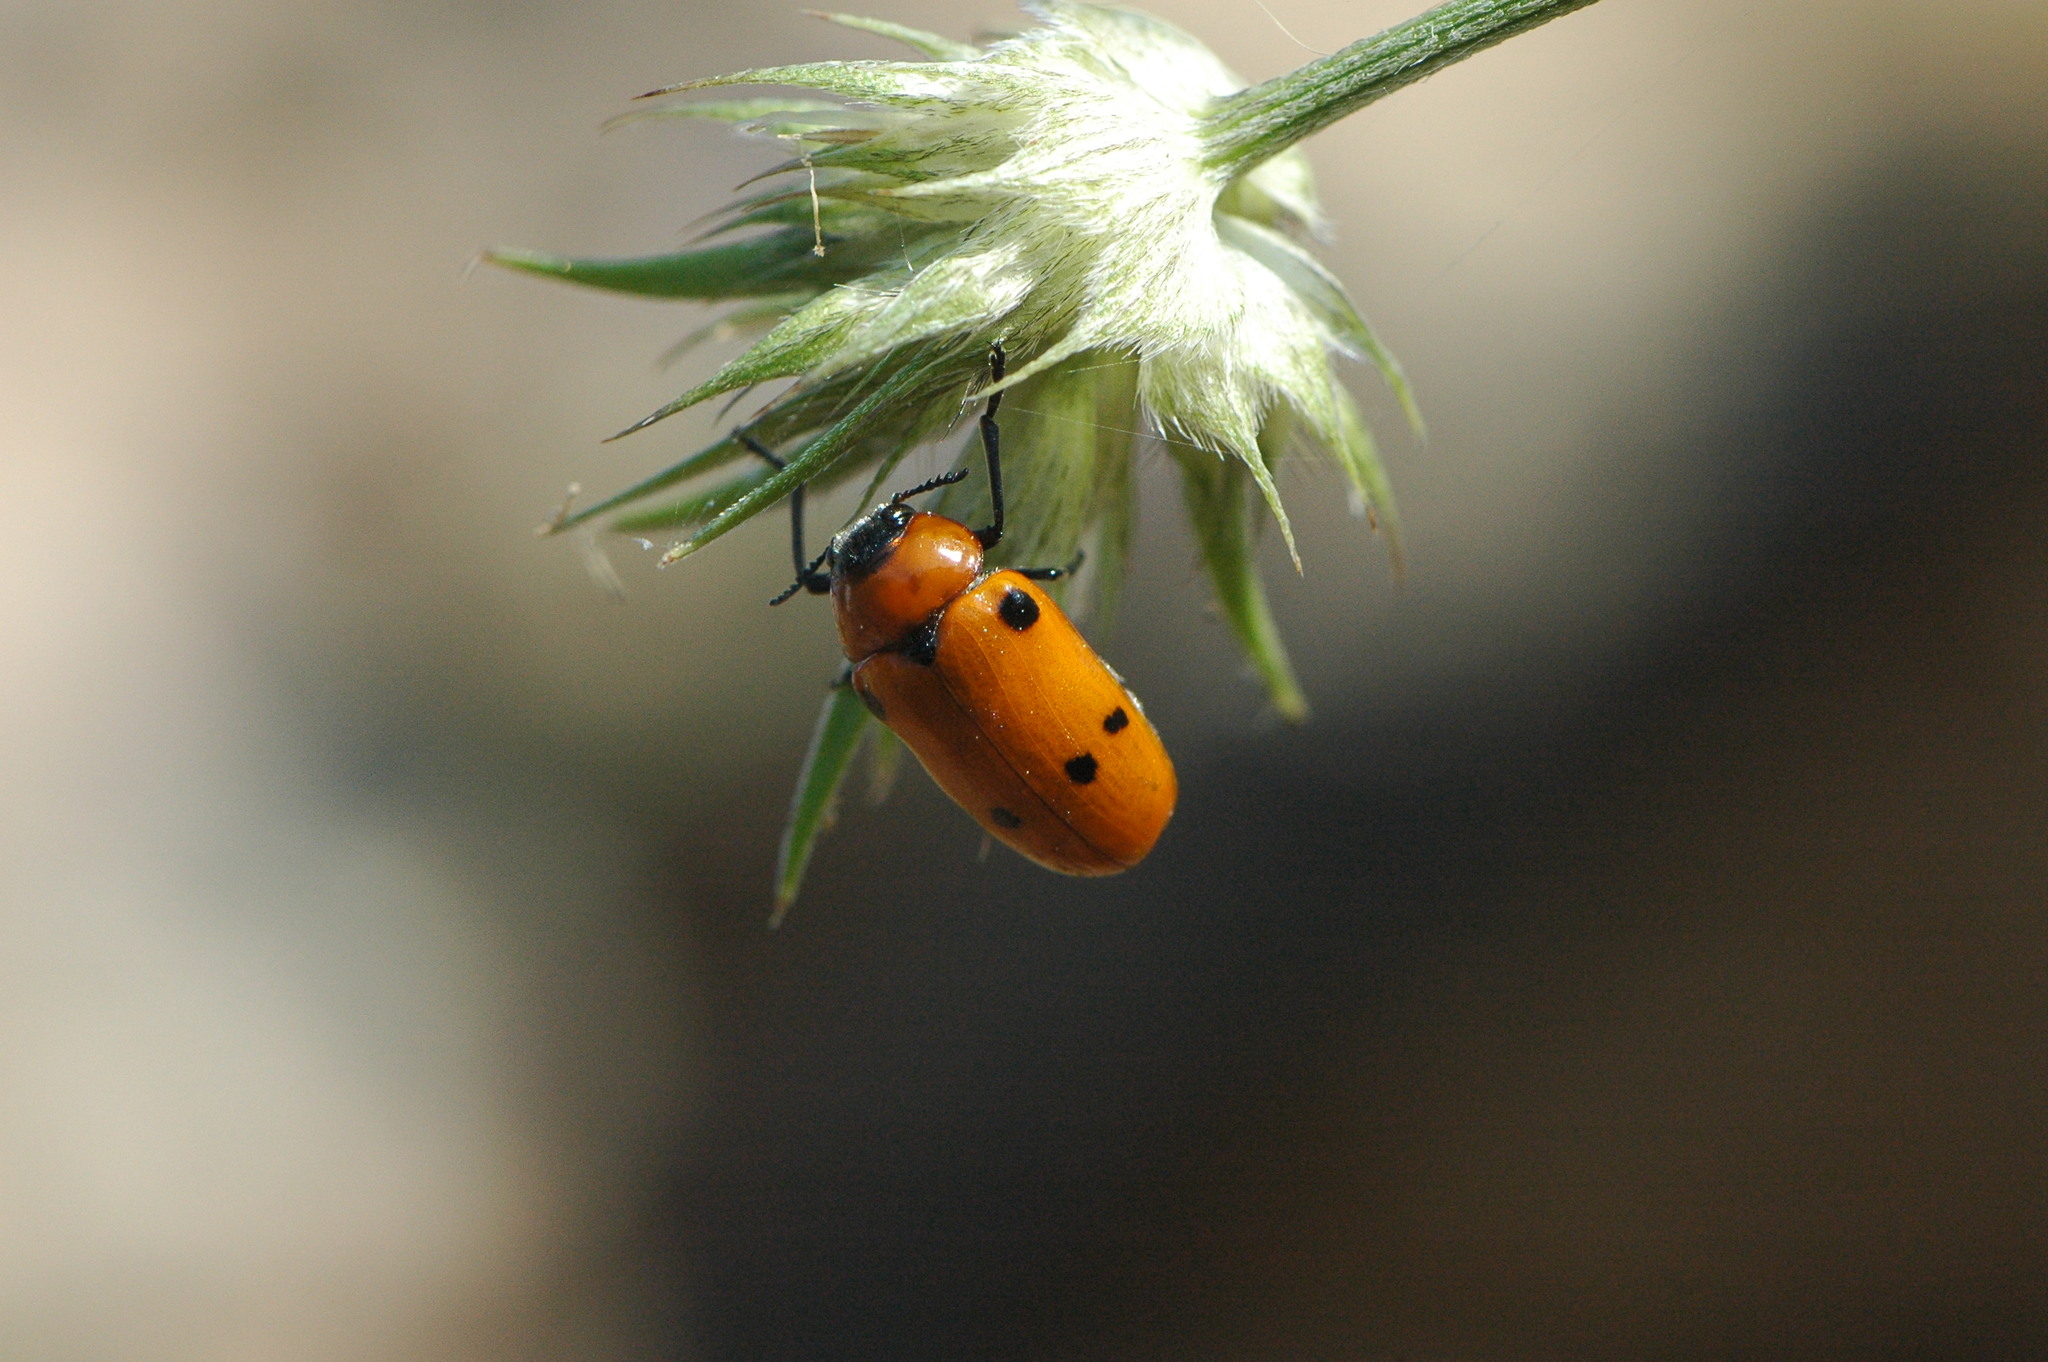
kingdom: Animalia
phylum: Arthropoda
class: Insecta
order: Coleoptera
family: Chrysomelidae
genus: Tituboea
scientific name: Tituboea sexmaculata
